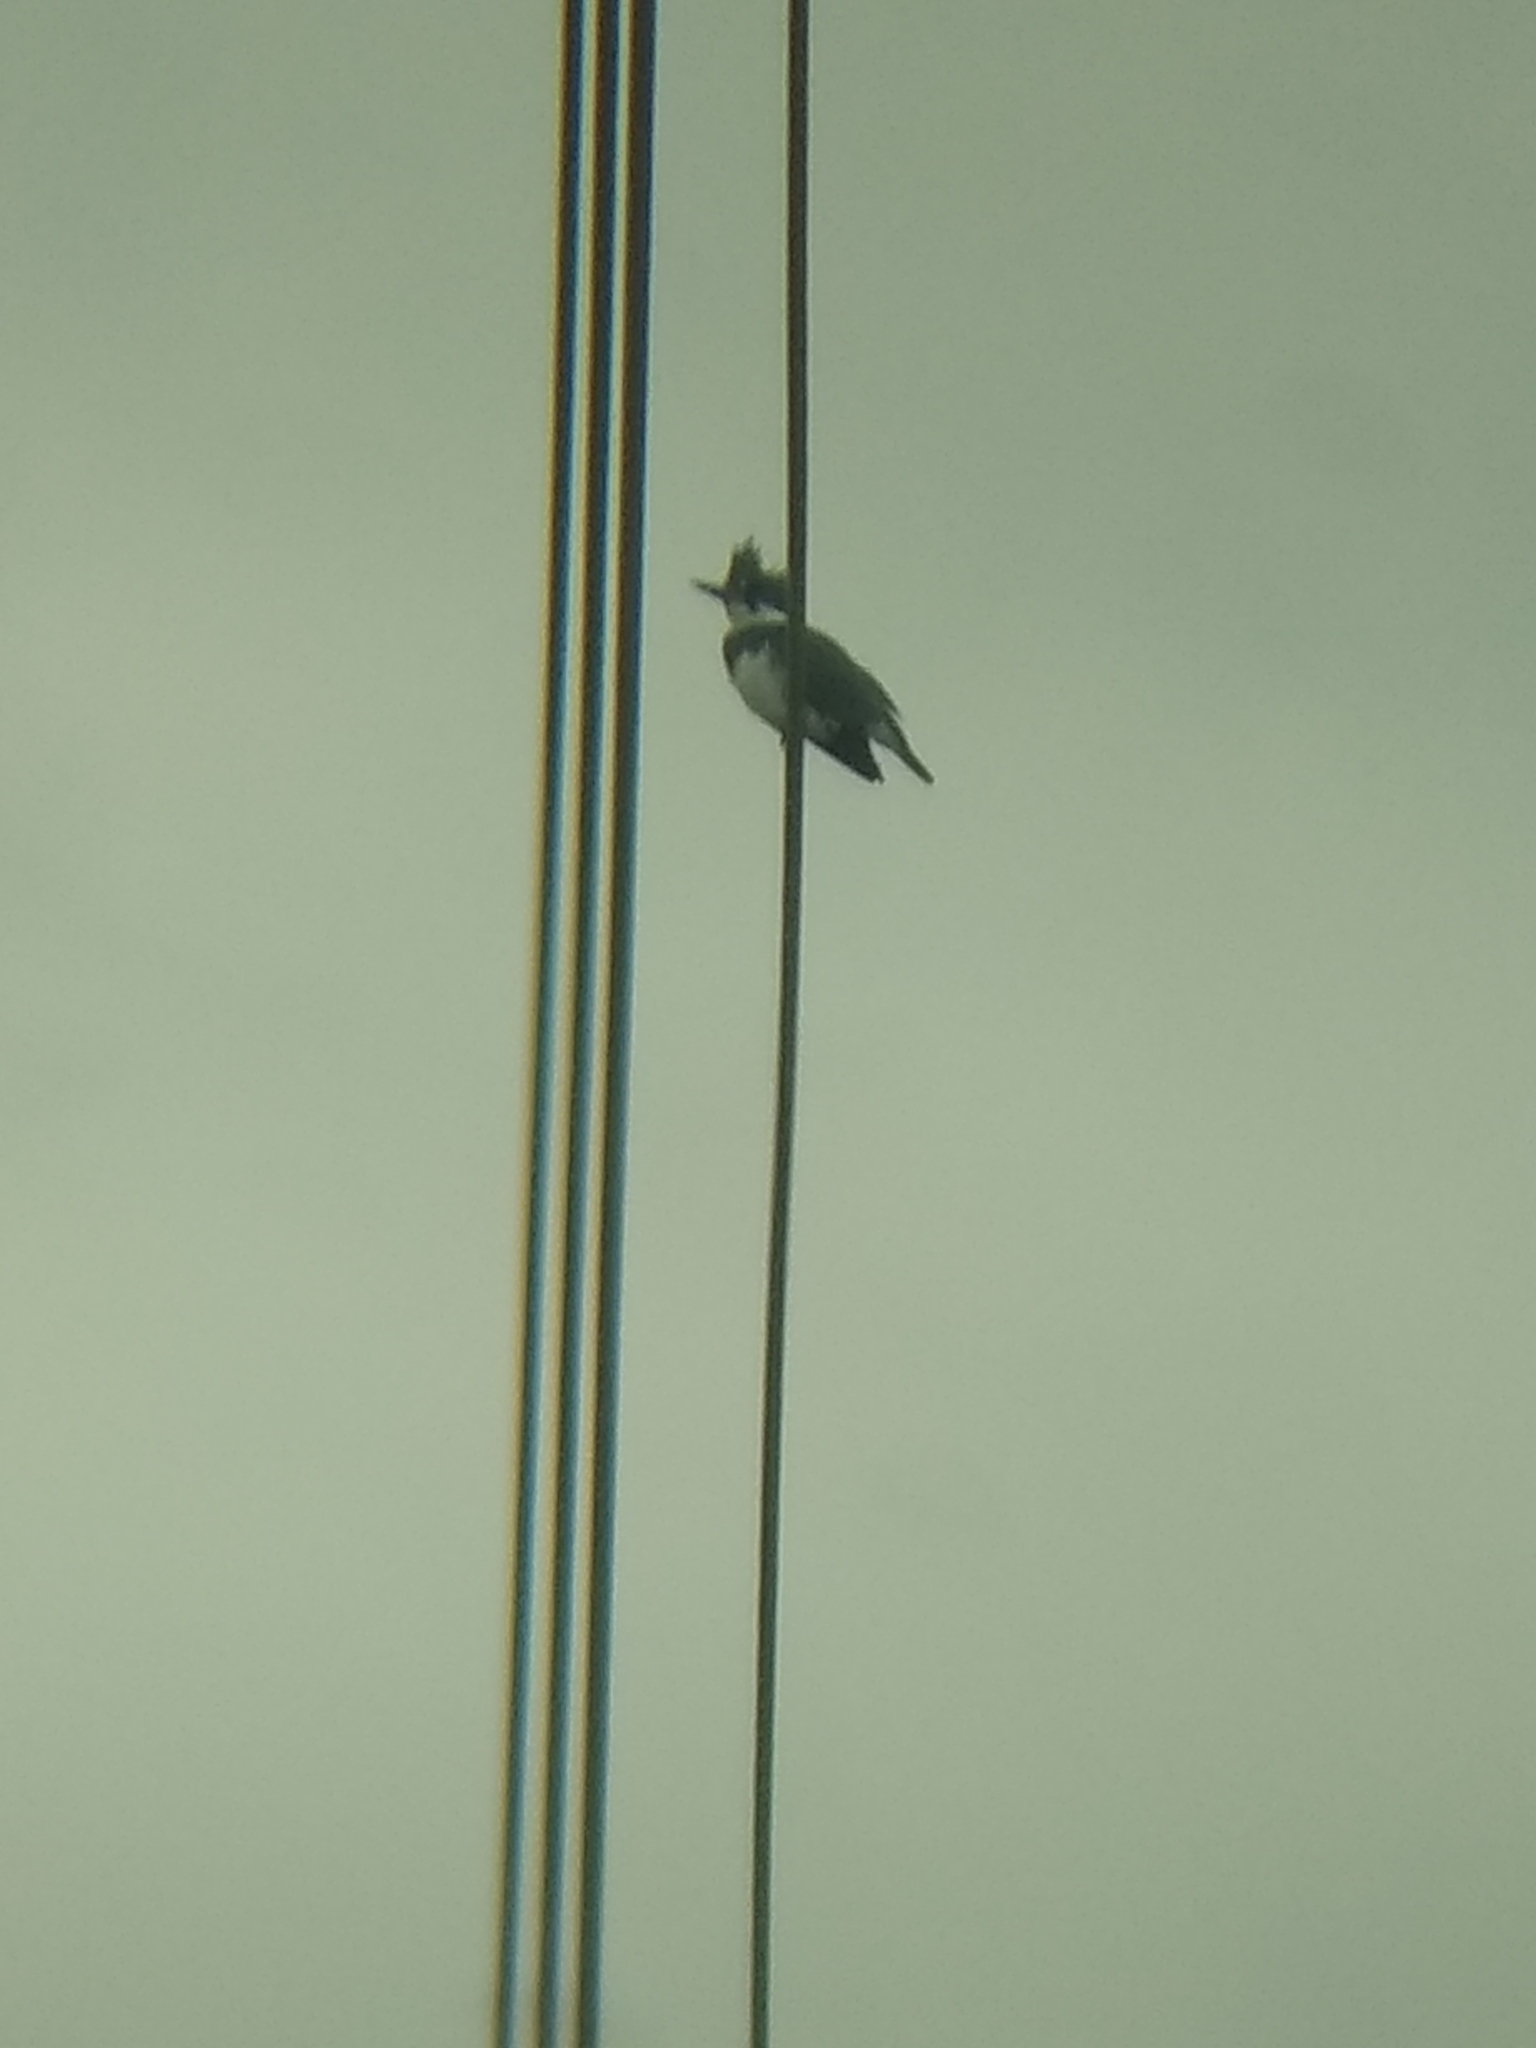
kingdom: Animalia
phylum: Chordata
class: Aves
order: Coraciiformes
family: Alcedinidae
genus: Megaceryle
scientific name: Megaceryle alcyon
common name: Belted kingfisher
